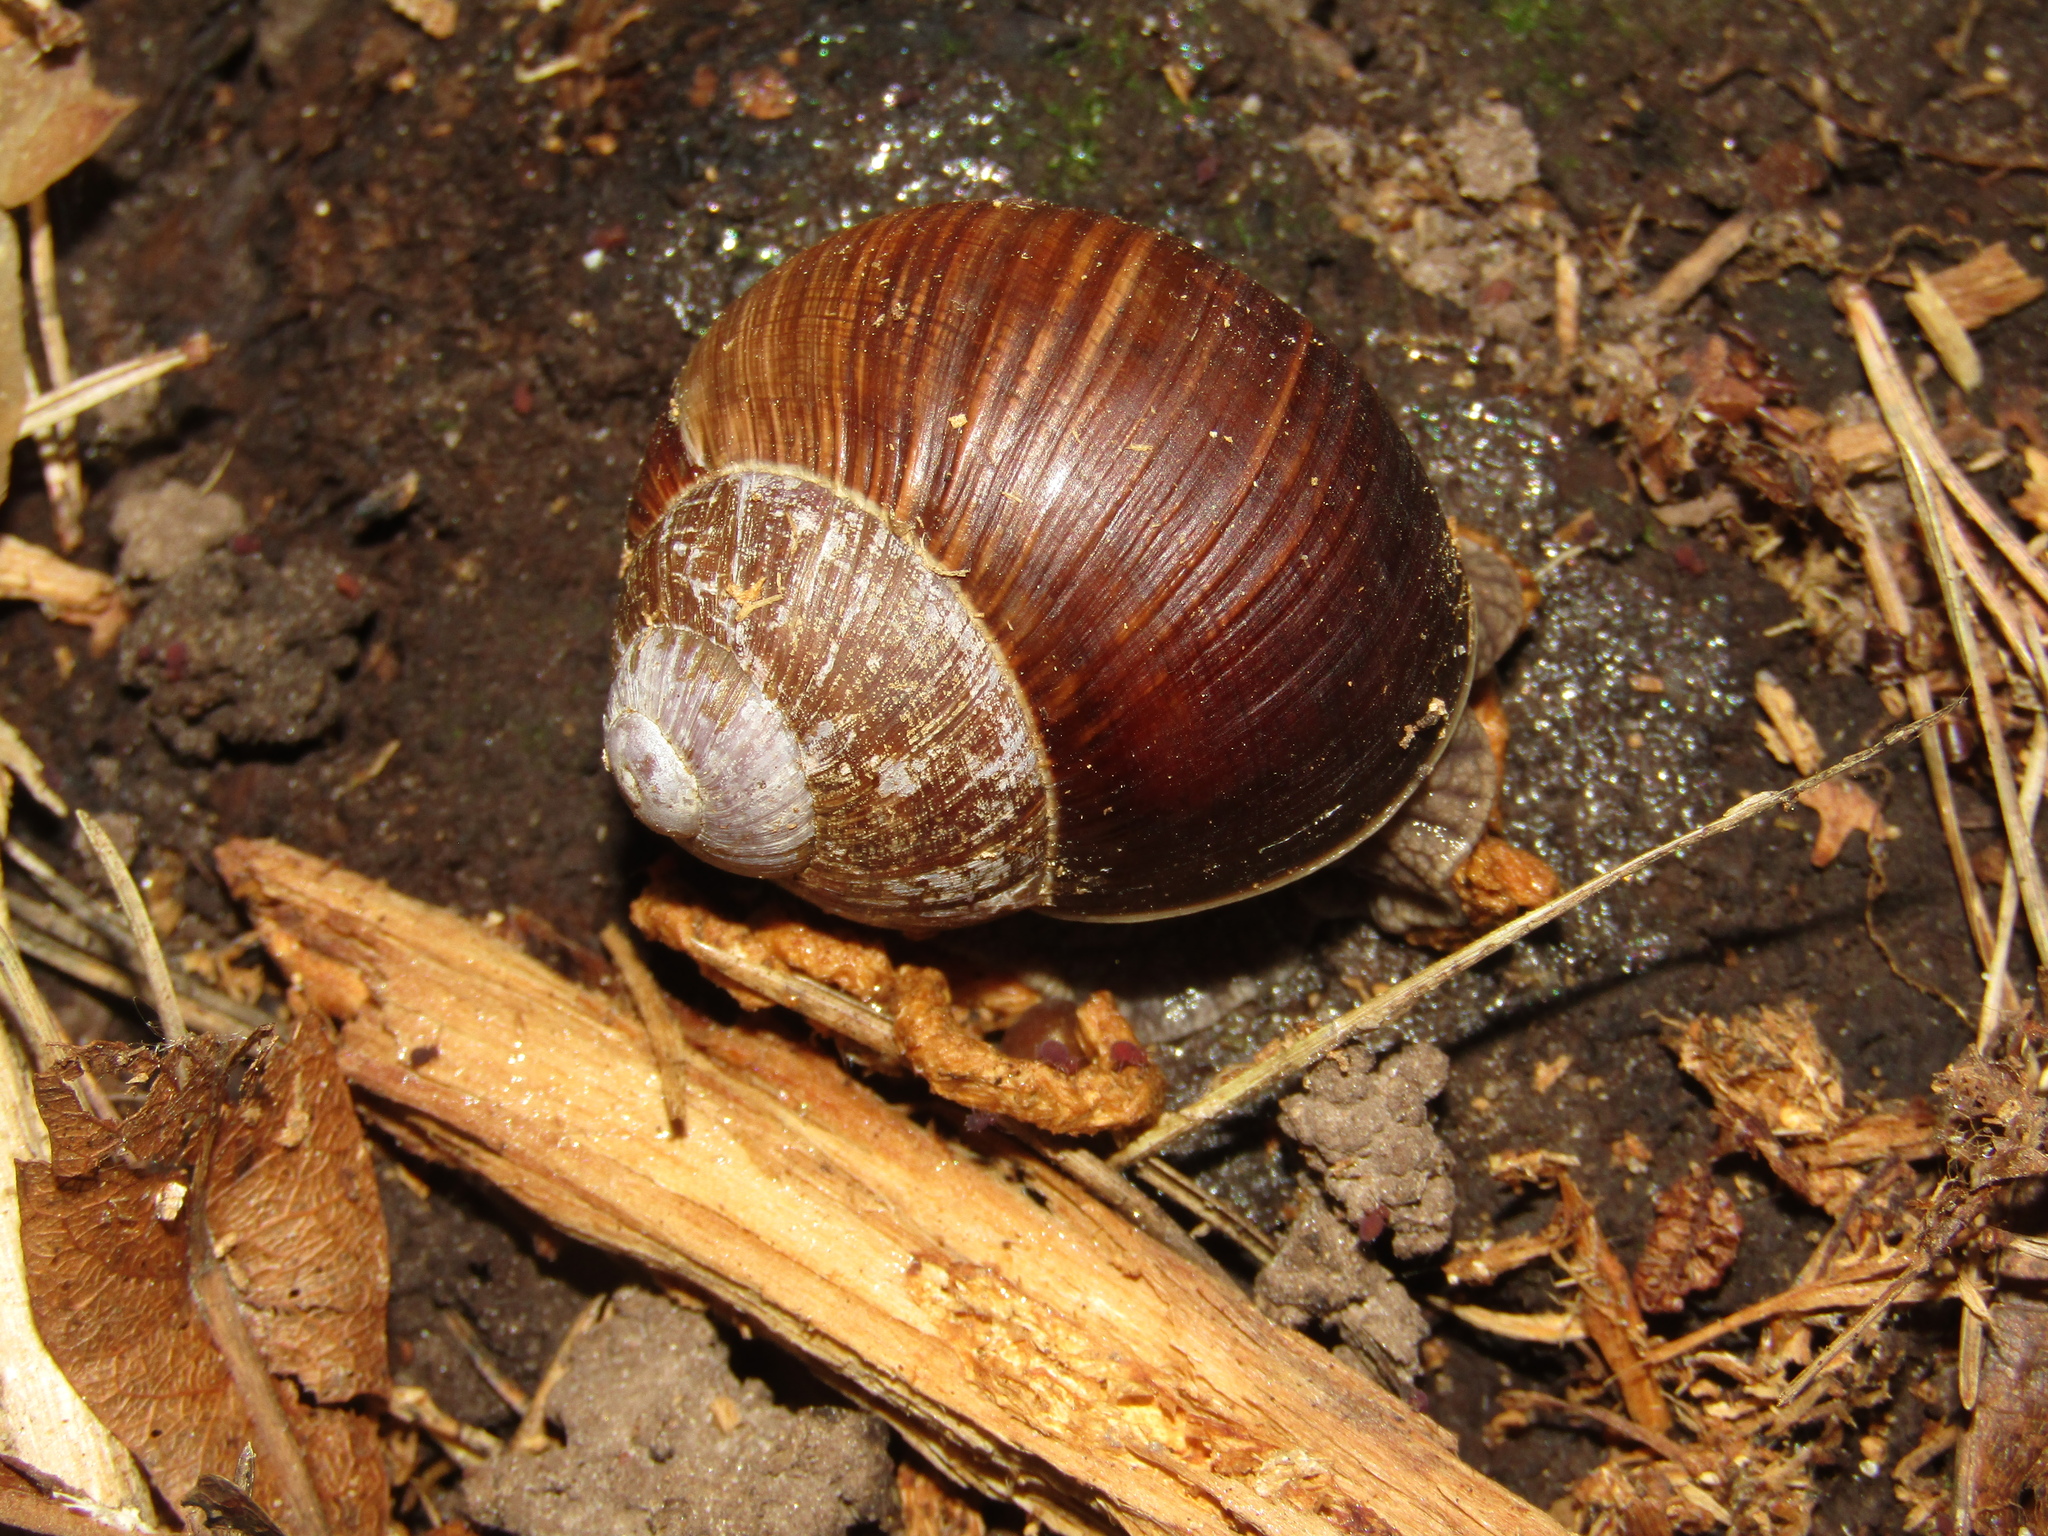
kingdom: Animalia
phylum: Mollusca
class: Gastropoda
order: Stylommatophora
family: Helicidae
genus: Helix
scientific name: Helix pomatia
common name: Roman snail
